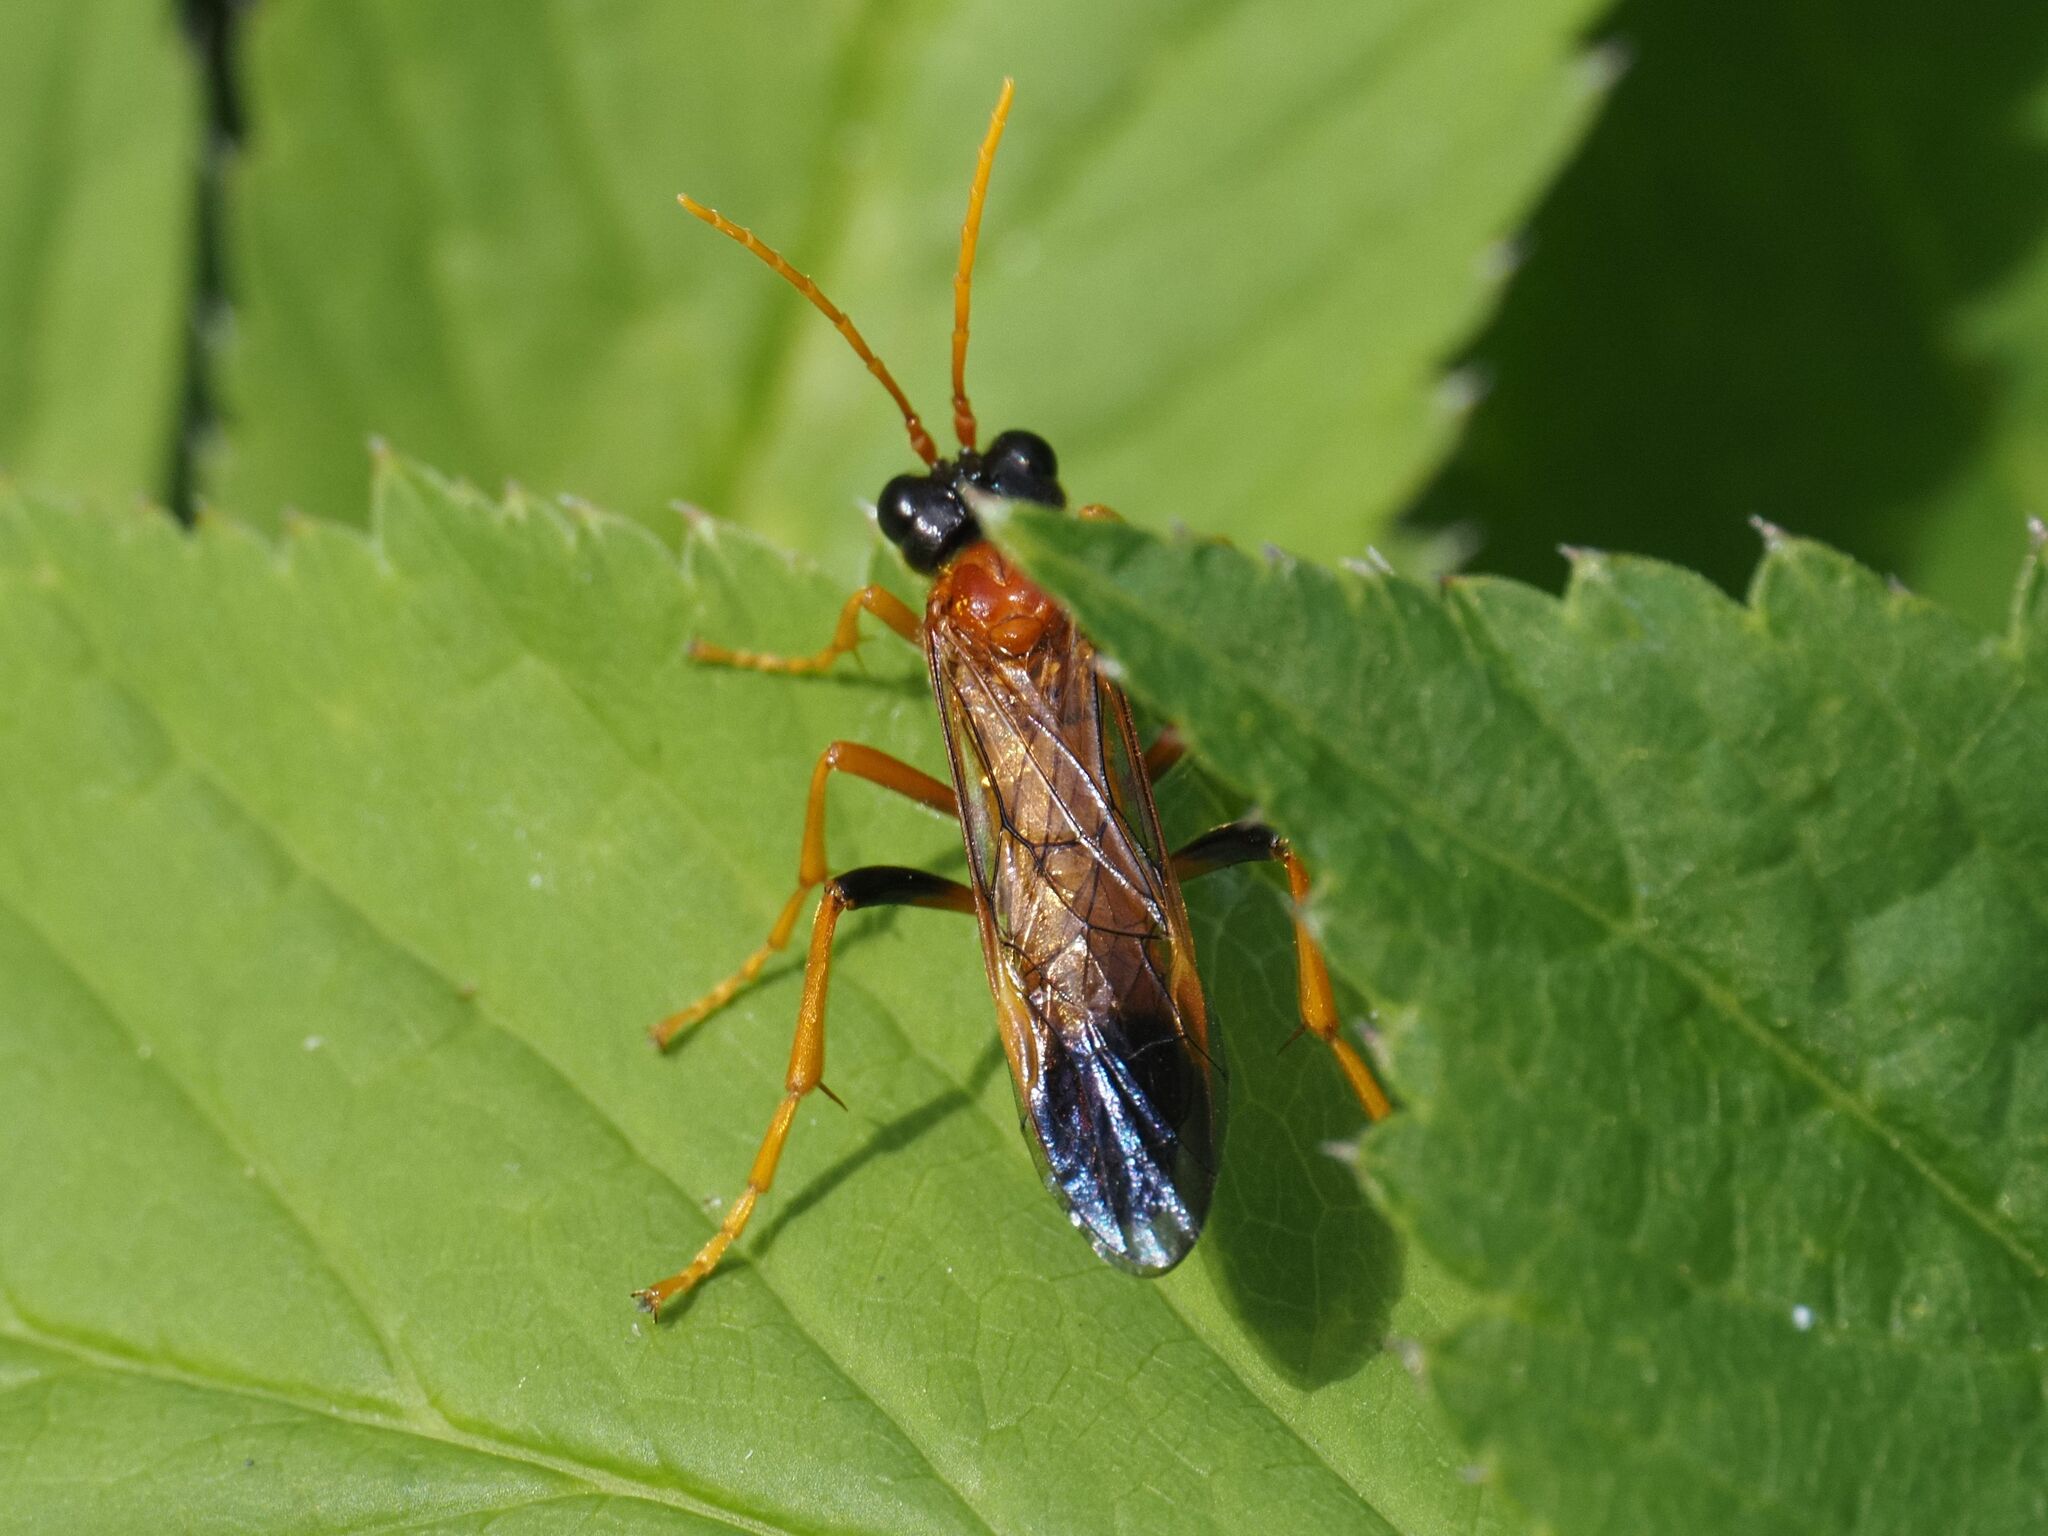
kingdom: Animalia
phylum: Arthropoda
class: Insecta
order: Hymenoptera
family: Tenthredinidae
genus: Tenthredo
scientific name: Tenthredo campestris
